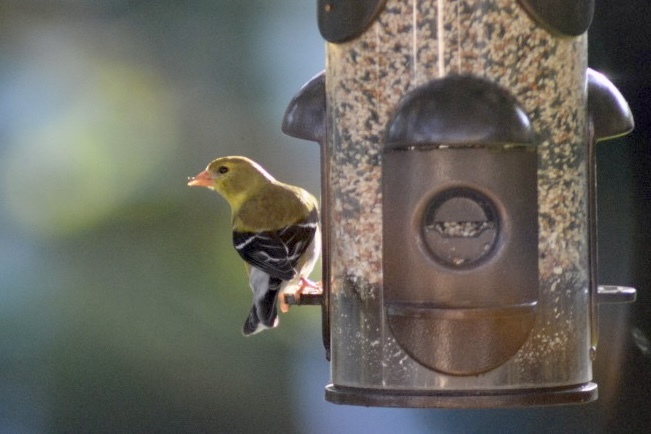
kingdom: Animalia
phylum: Chordata
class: Aves
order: Passeriformes
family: Fringillidae
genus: Spinus
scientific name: Spinus tristis
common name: American goldfinch
